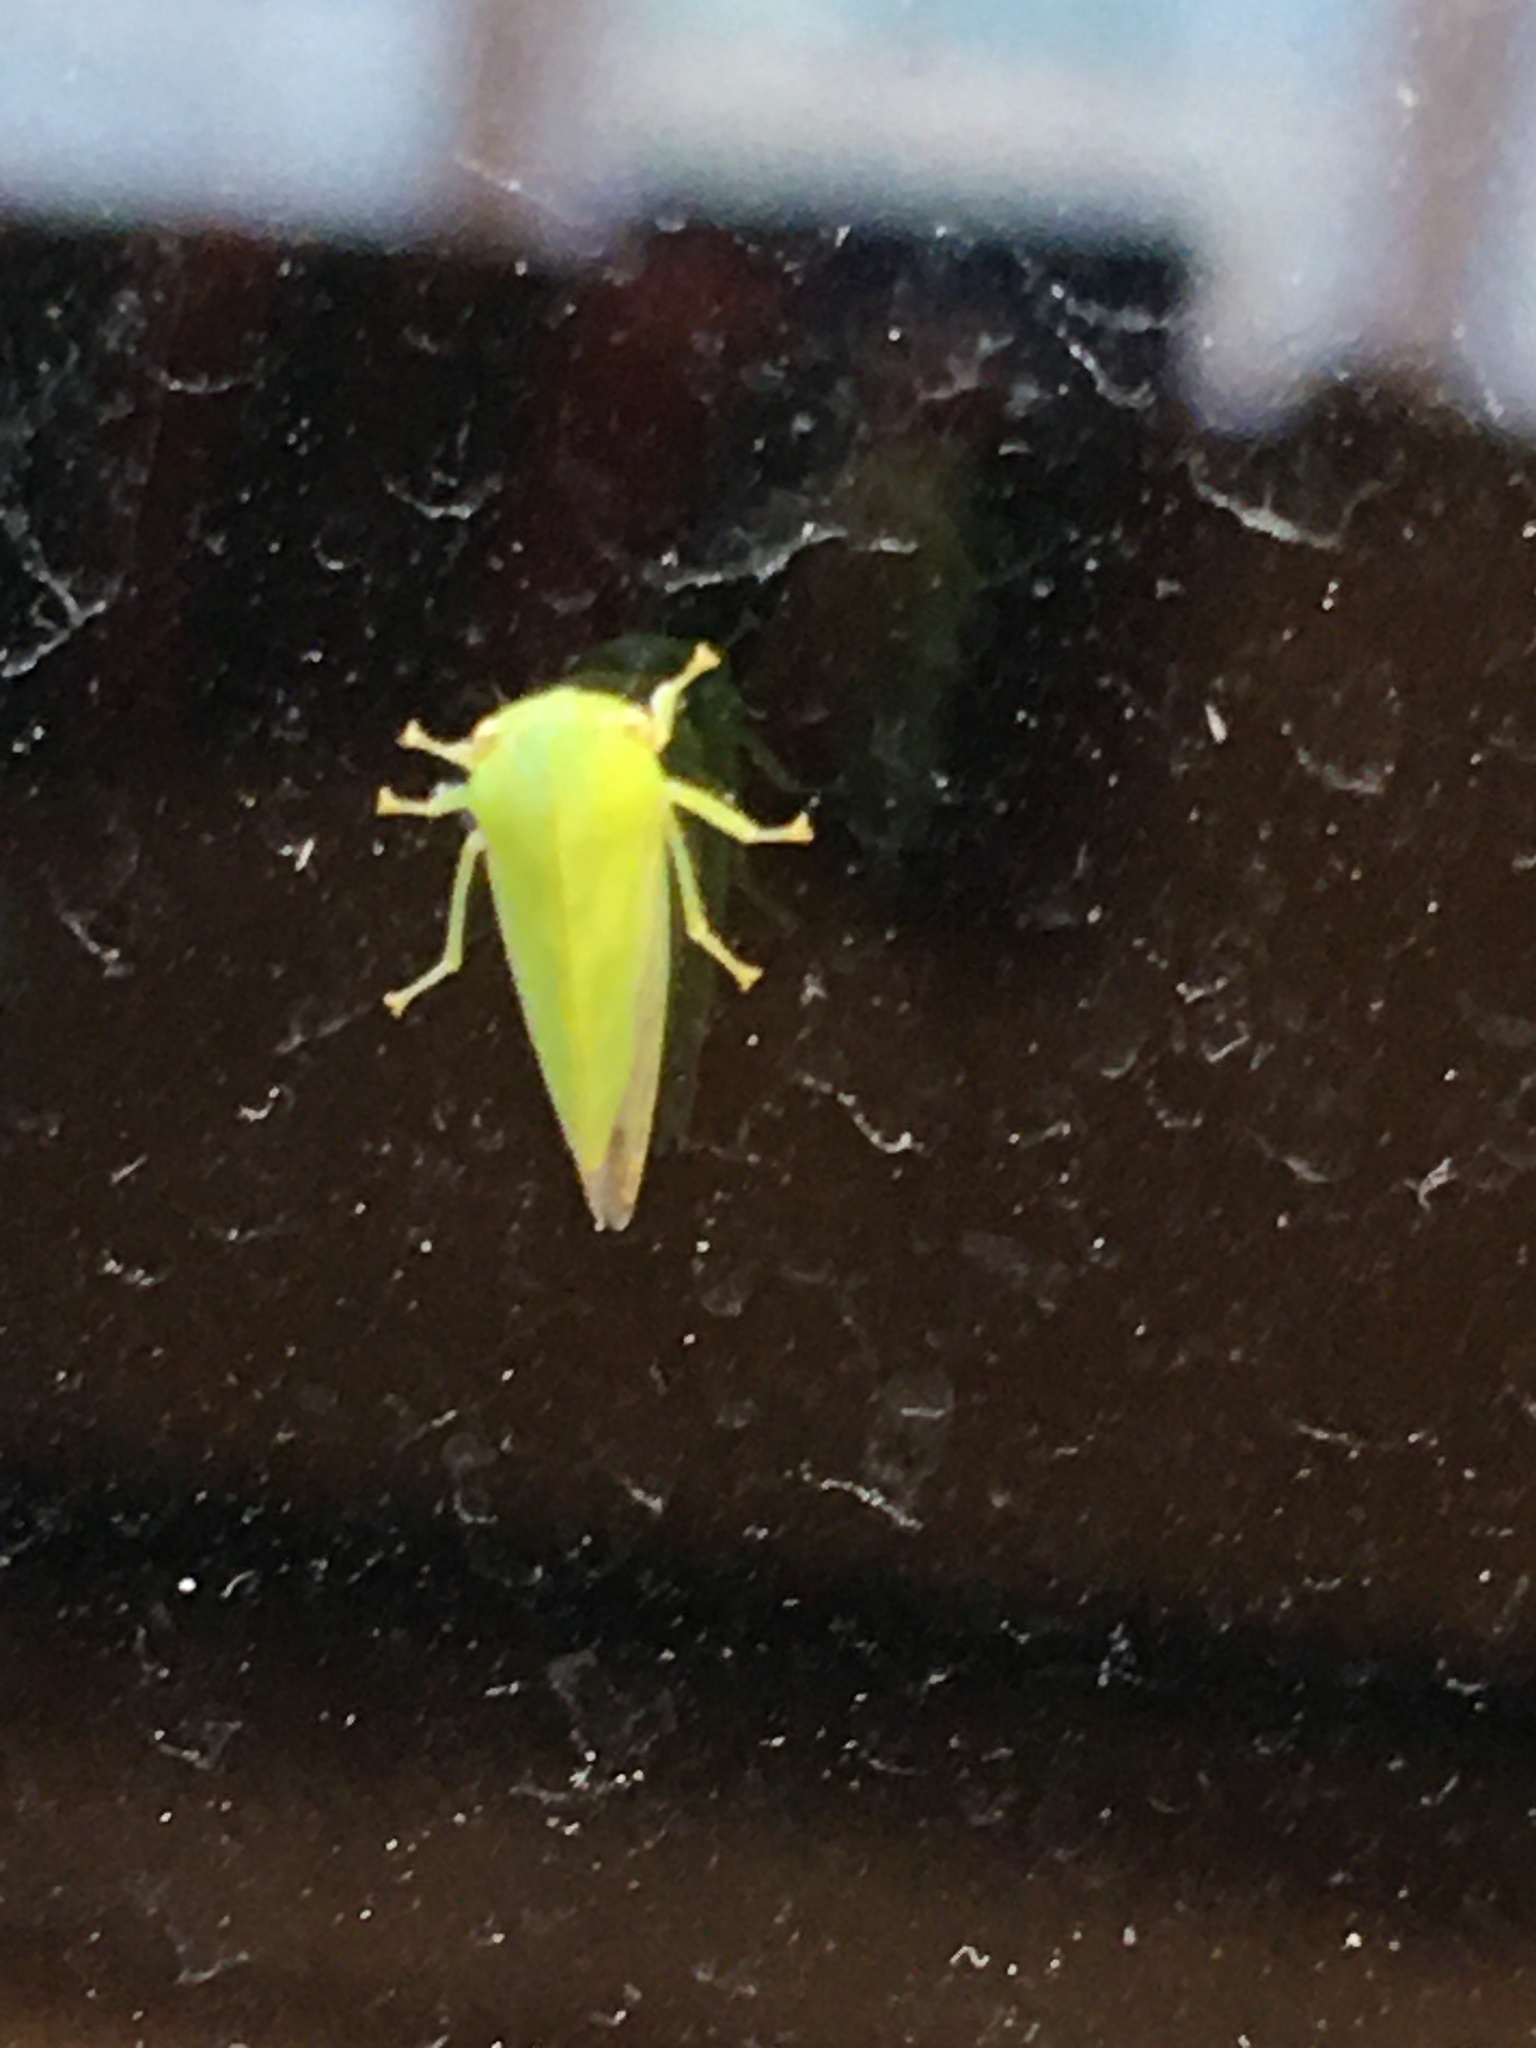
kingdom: Animalia
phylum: Arthropoda
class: Insecta
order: Hemiptera
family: Acanaloniidae
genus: Acanalonia
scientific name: Acanalonia conica
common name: Green cone-headed planthopper
